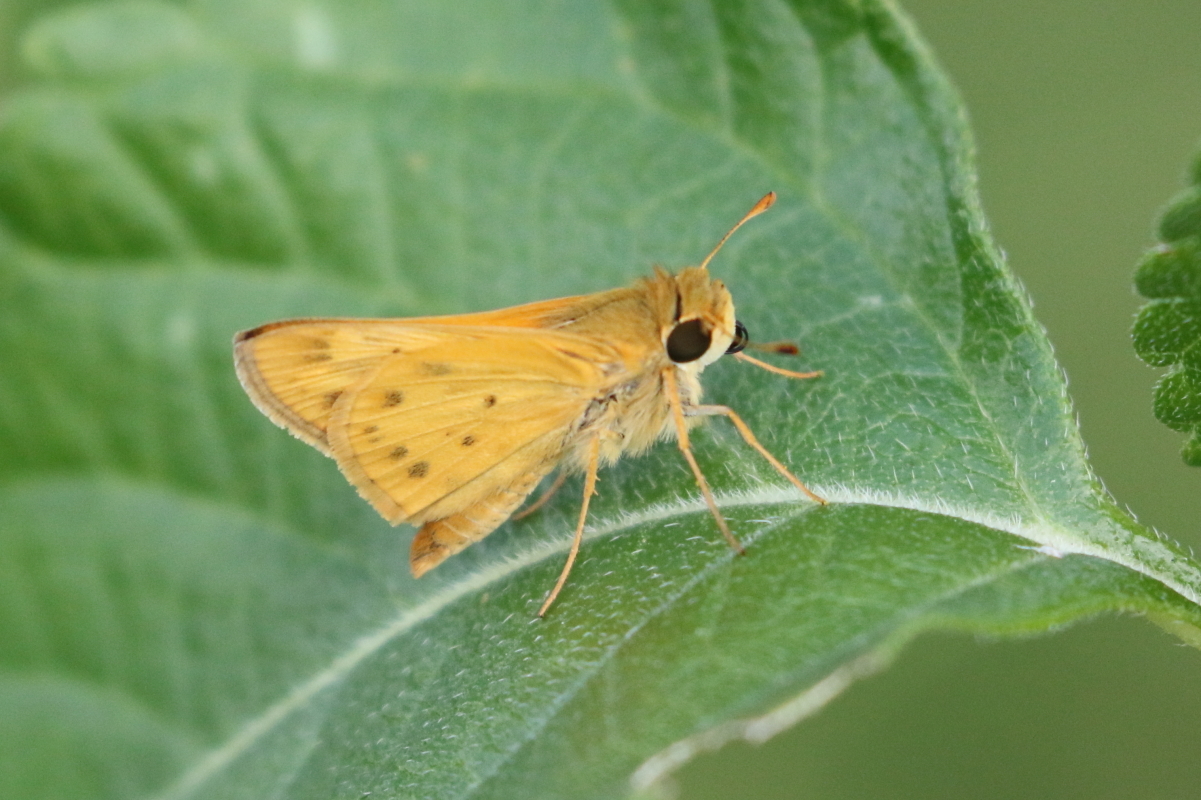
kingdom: Animalia
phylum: Arthropoda
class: Insecta
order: Lepidoptera
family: Hesperiidae
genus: Hylephila
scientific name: Hylephila phyleus
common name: Fiery skipper
